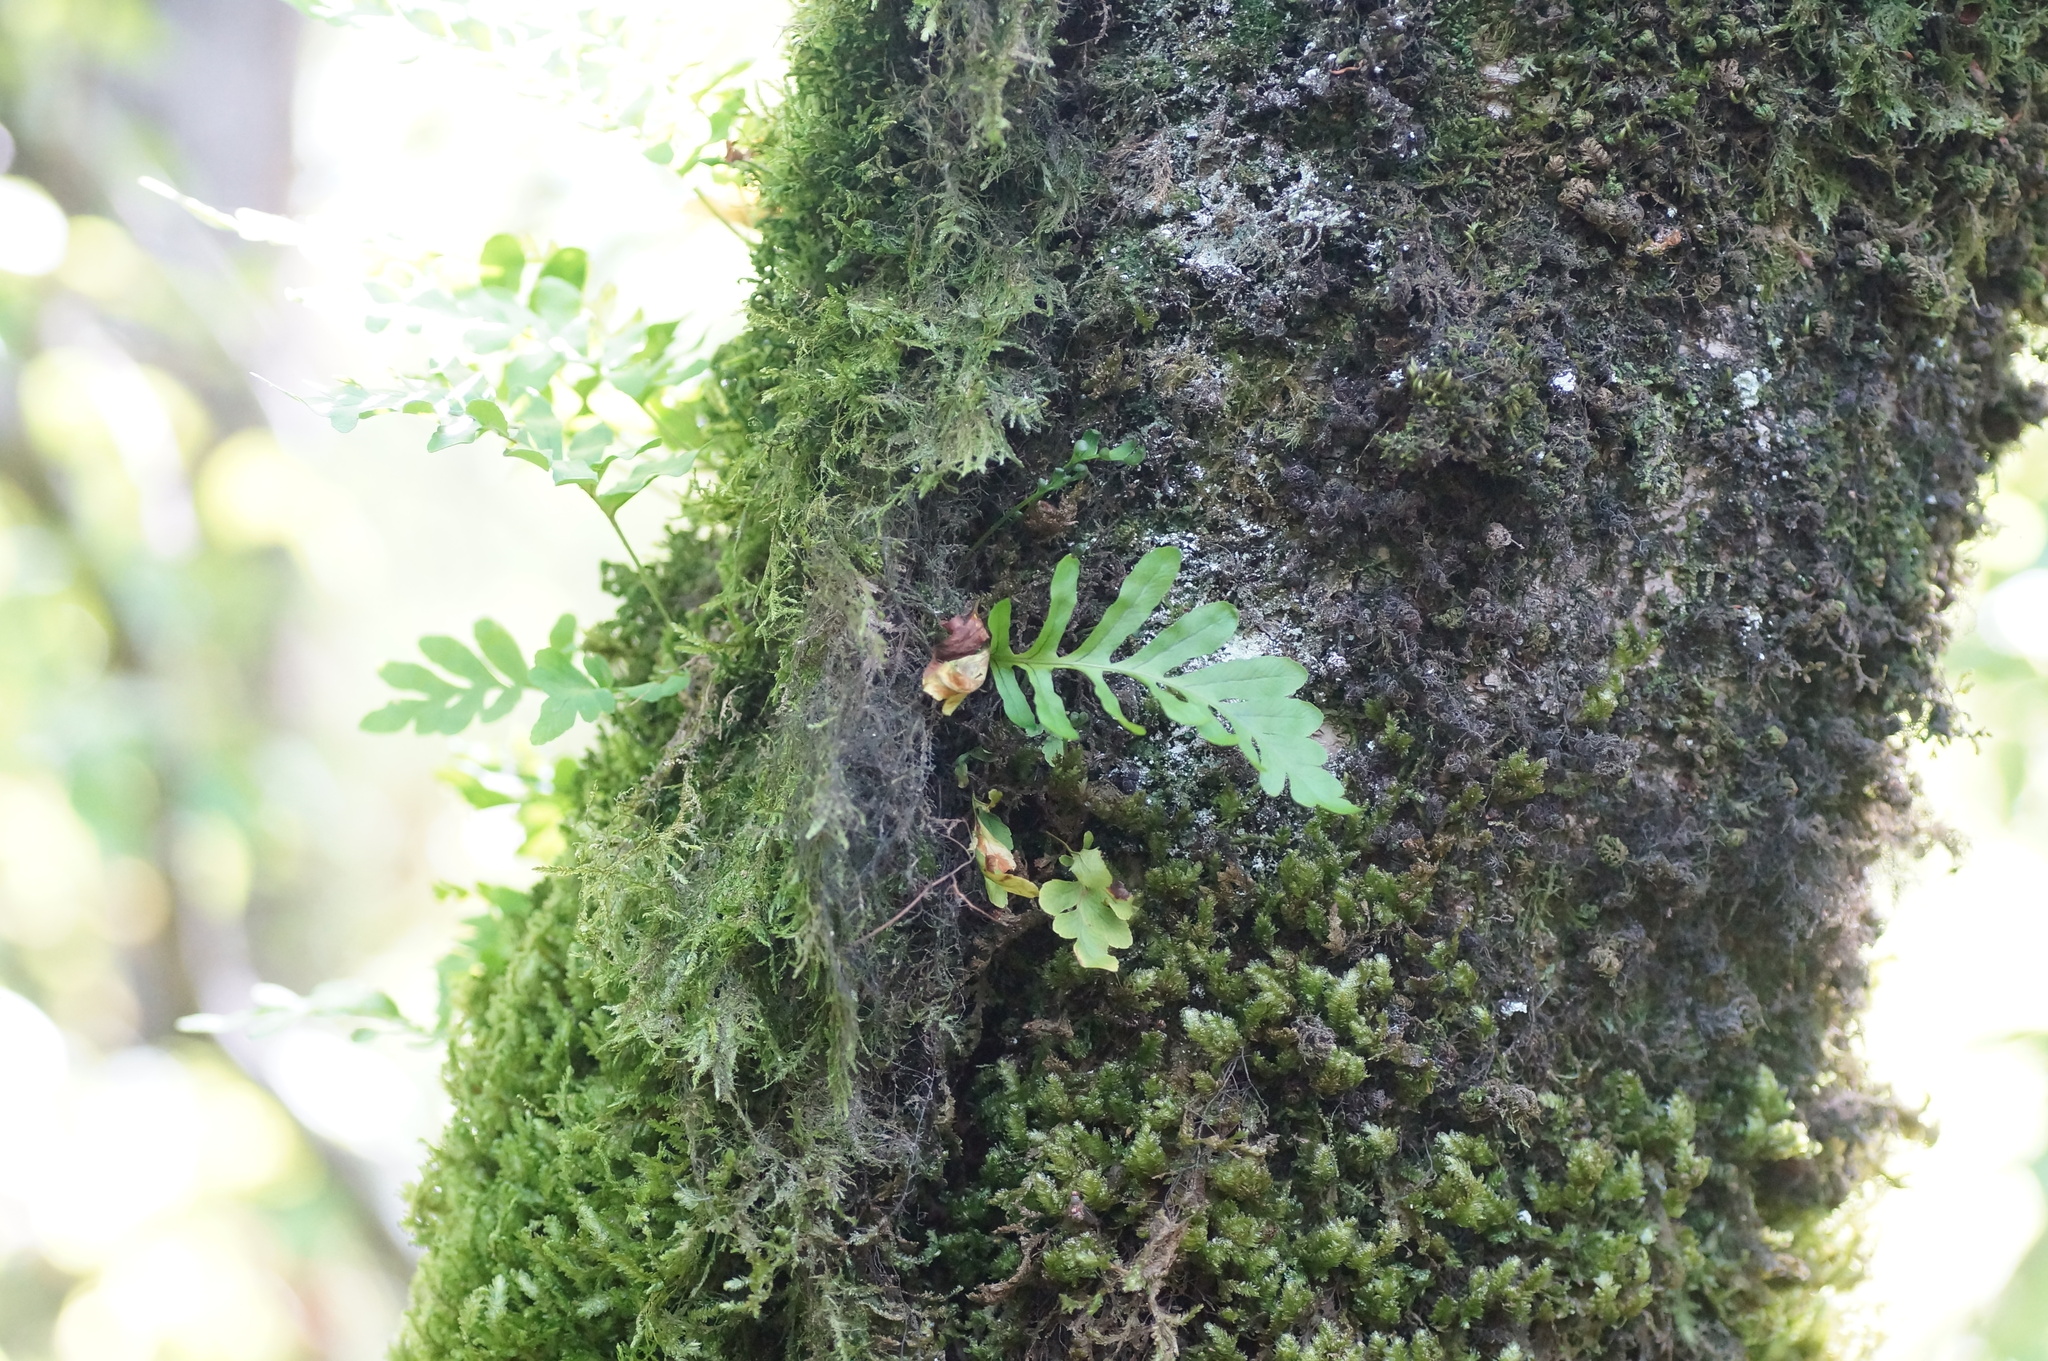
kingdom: Plantae
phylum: Tracheophyta
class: Polypodiopsida
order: Polypodiales
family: Polypodiaceae
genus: Polypodium
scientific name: Polypodium cambricum
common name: Southern polypody
